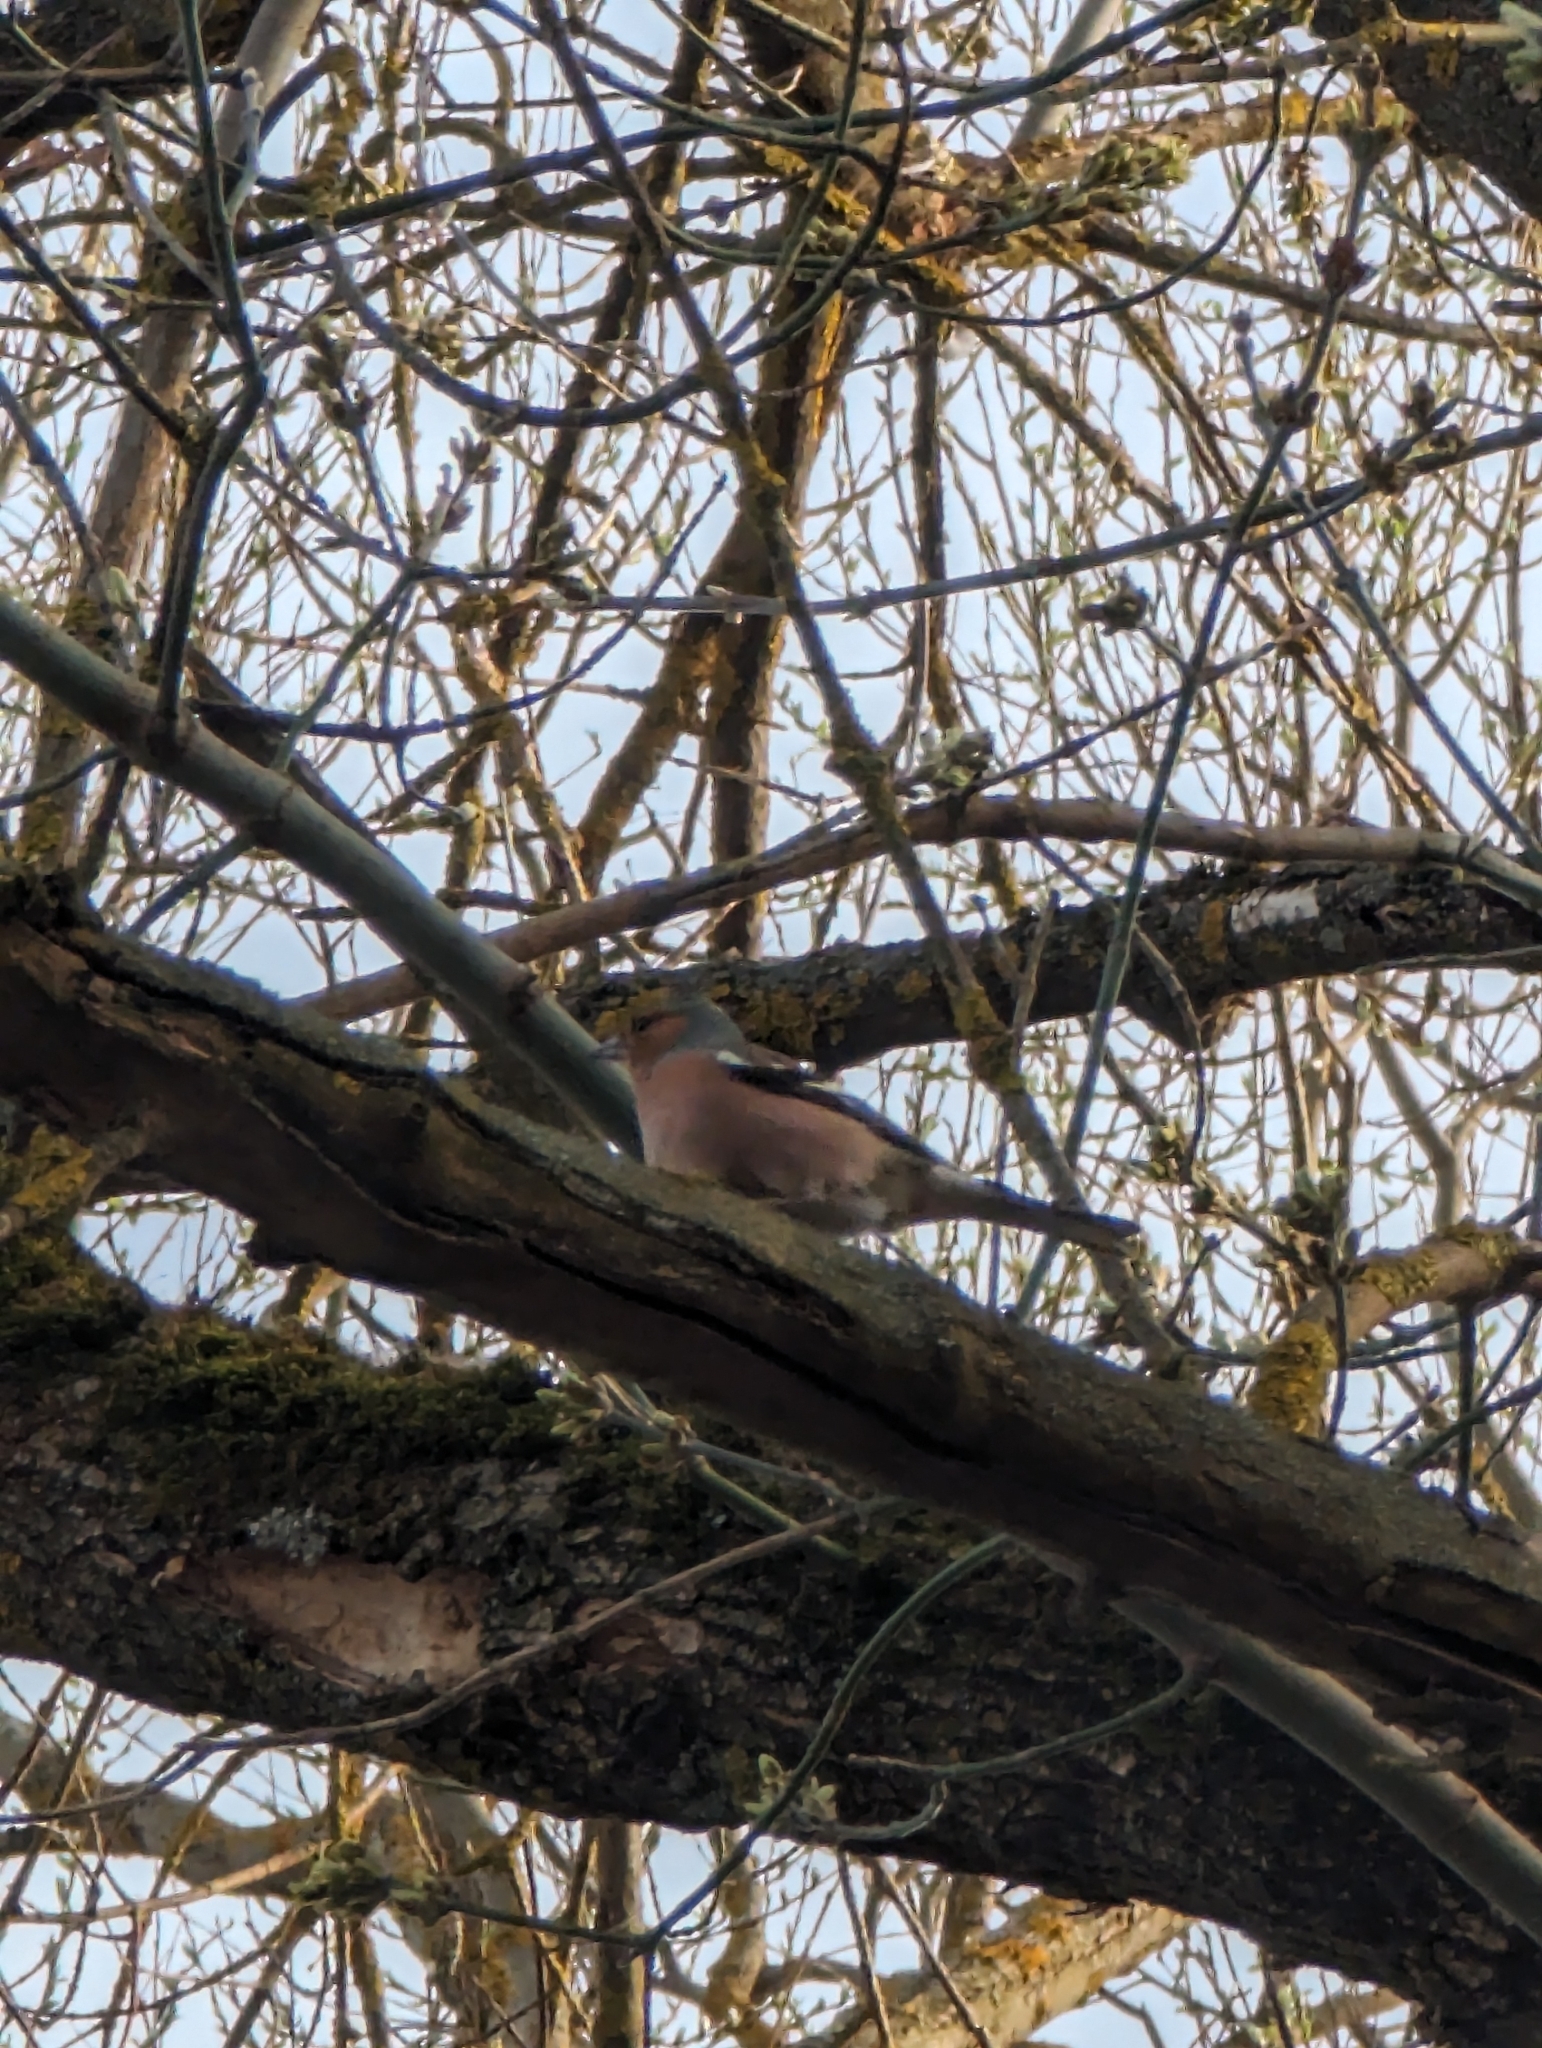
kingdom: Animalia
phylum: Chordata
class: Aves
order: Passeriformes
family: Fringillidae
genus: Fringilla
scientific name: Fringilla coelebs
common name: Common chaffinch
